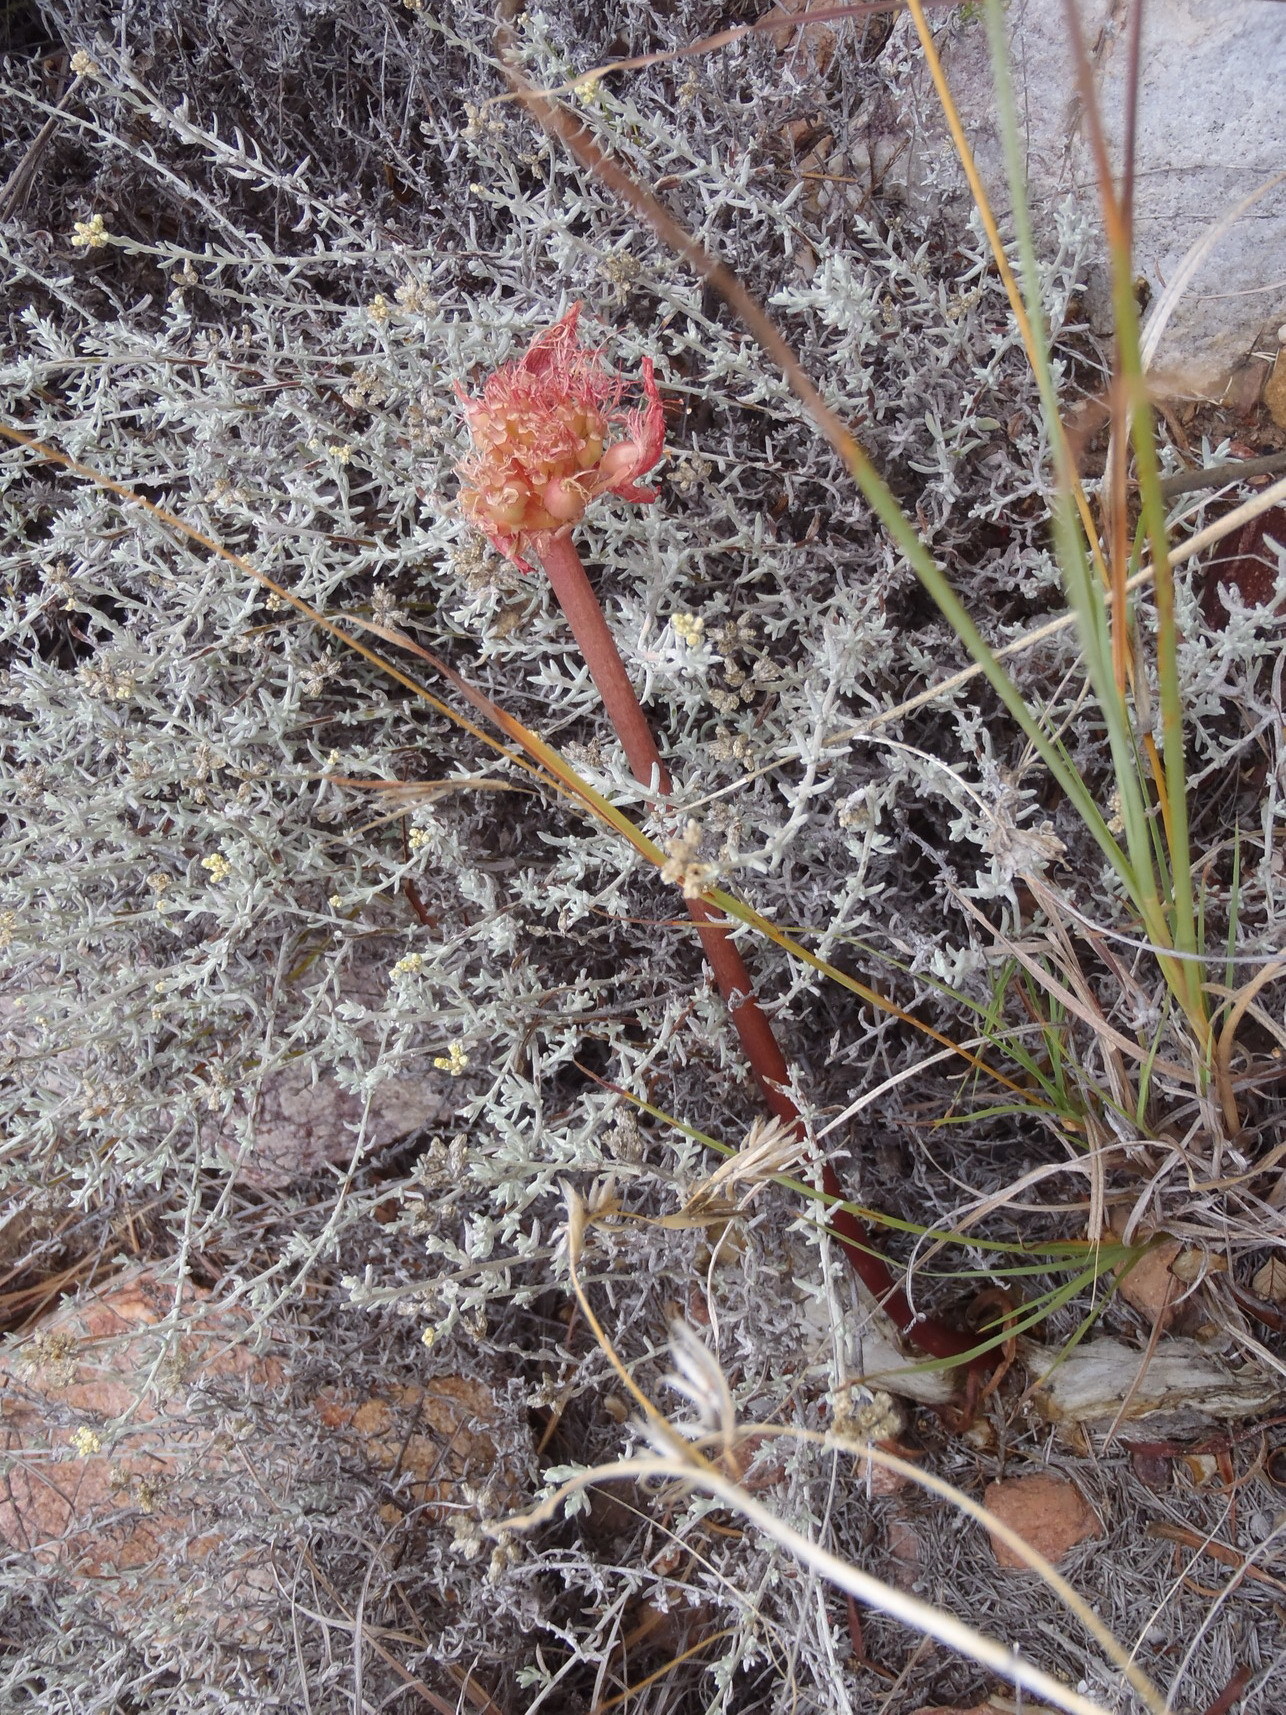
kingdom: Plantae
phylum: Tracheophyta
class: Liliopsida
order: Asparagales
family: Amaryllidaceae
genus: Haemanthus
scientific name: Haemanthus sanguineus
